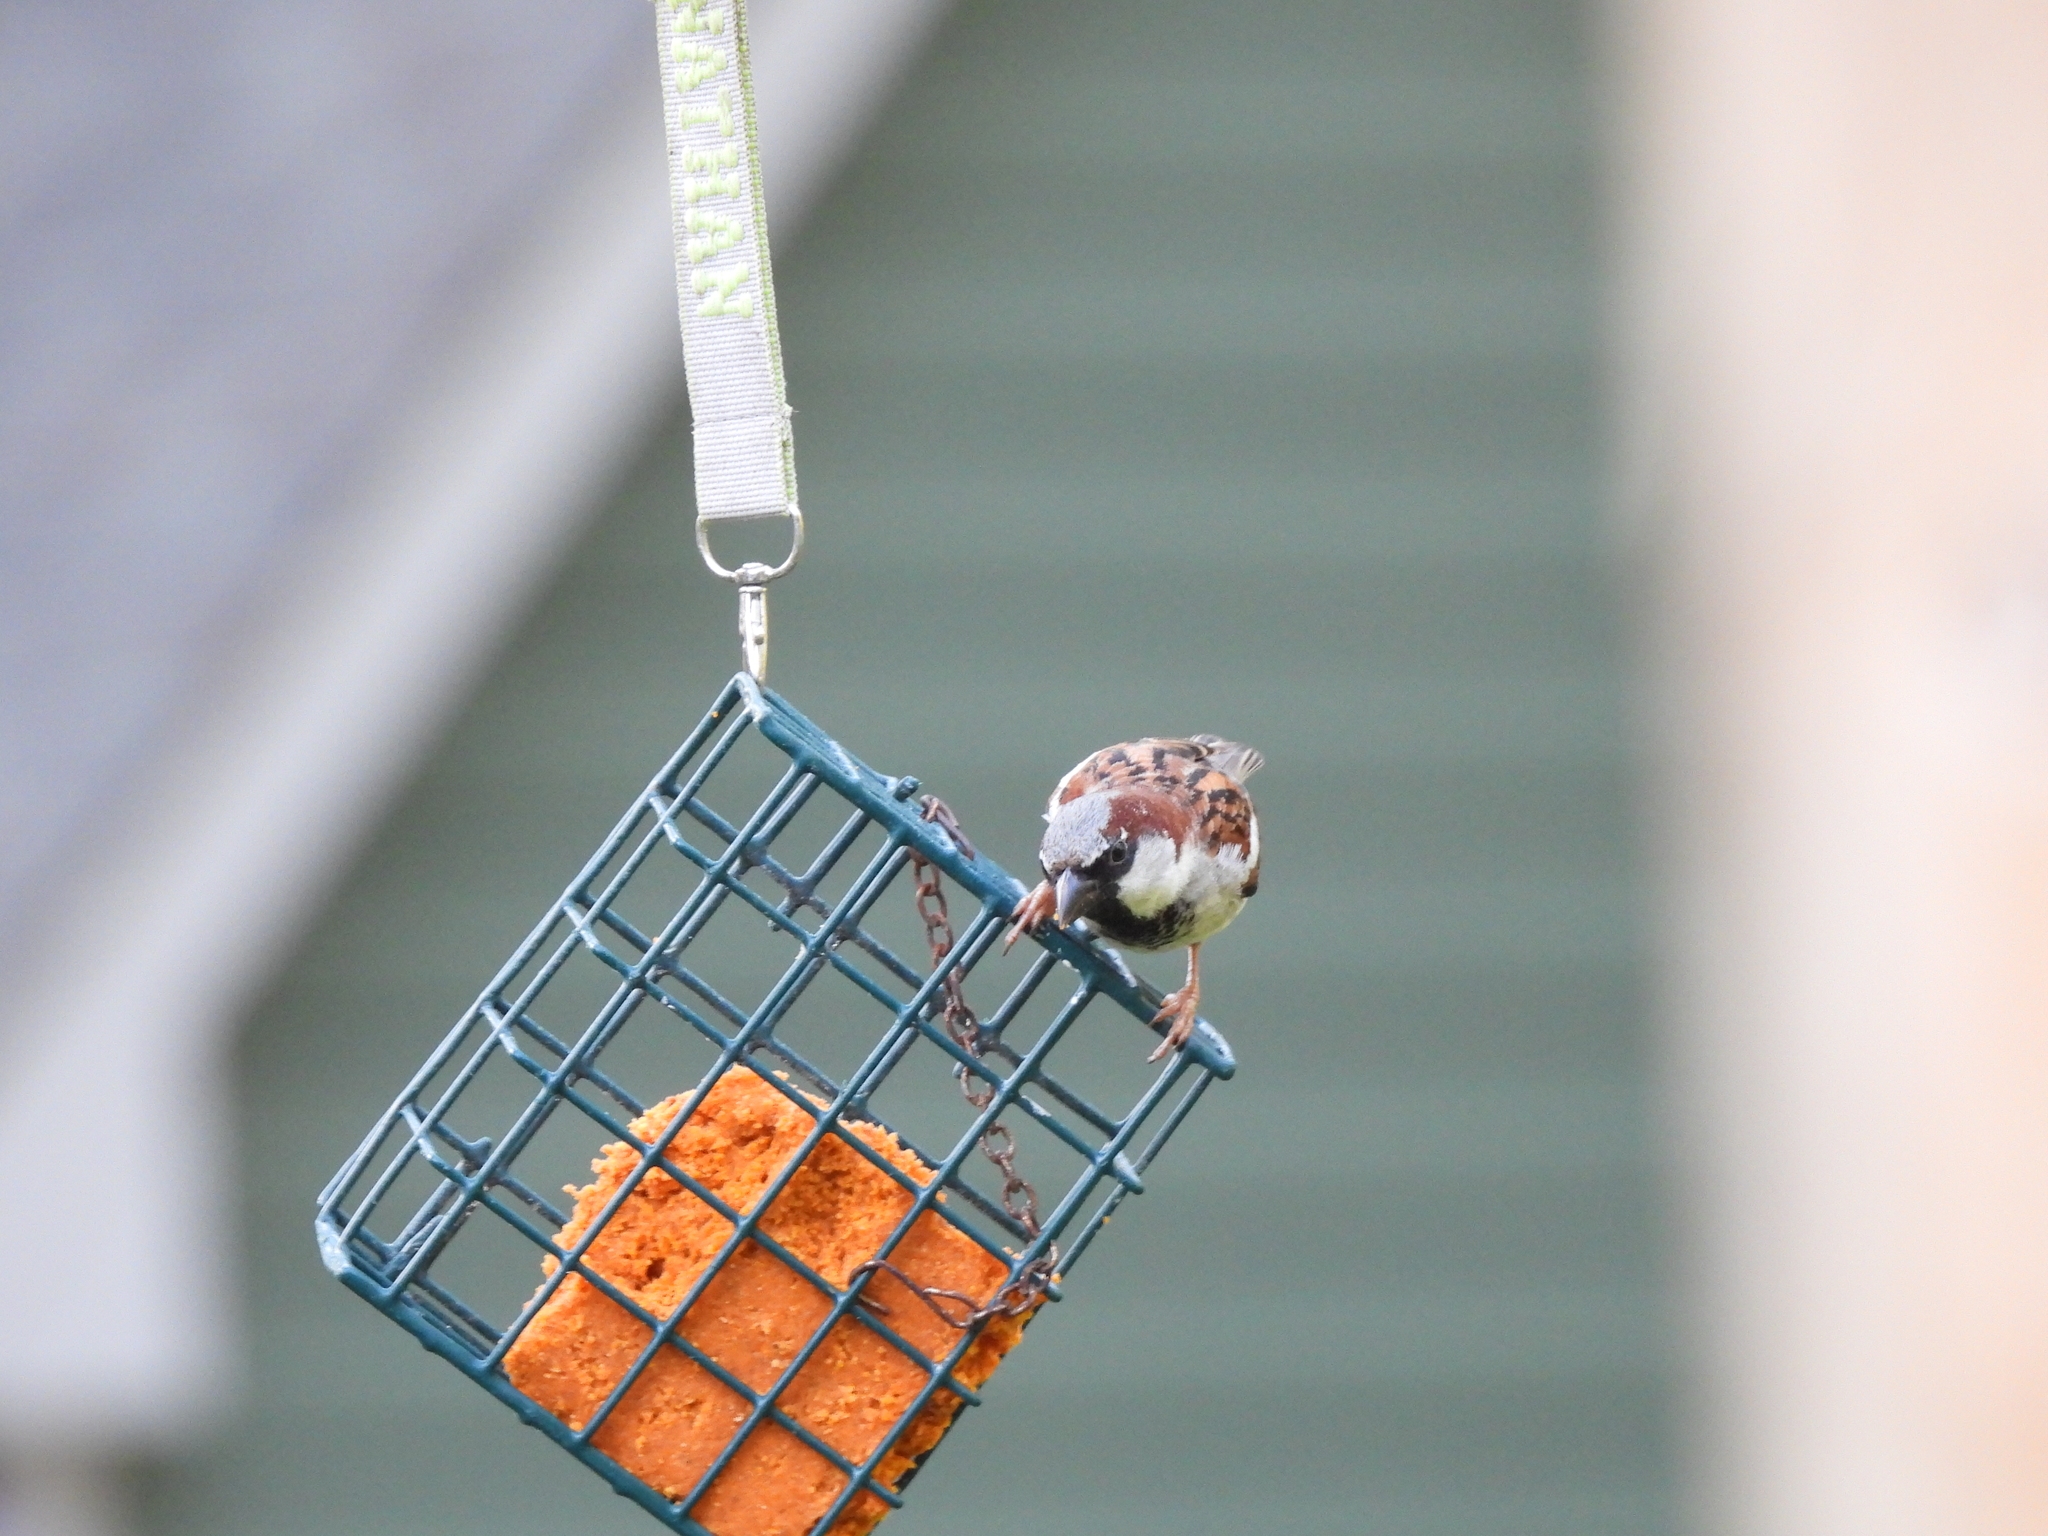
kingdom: Animalia
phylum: Chordata
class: Aves
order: Passeriformes
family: Passeridae
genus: Passer
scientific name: Passer domesticus
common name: House sparrow
